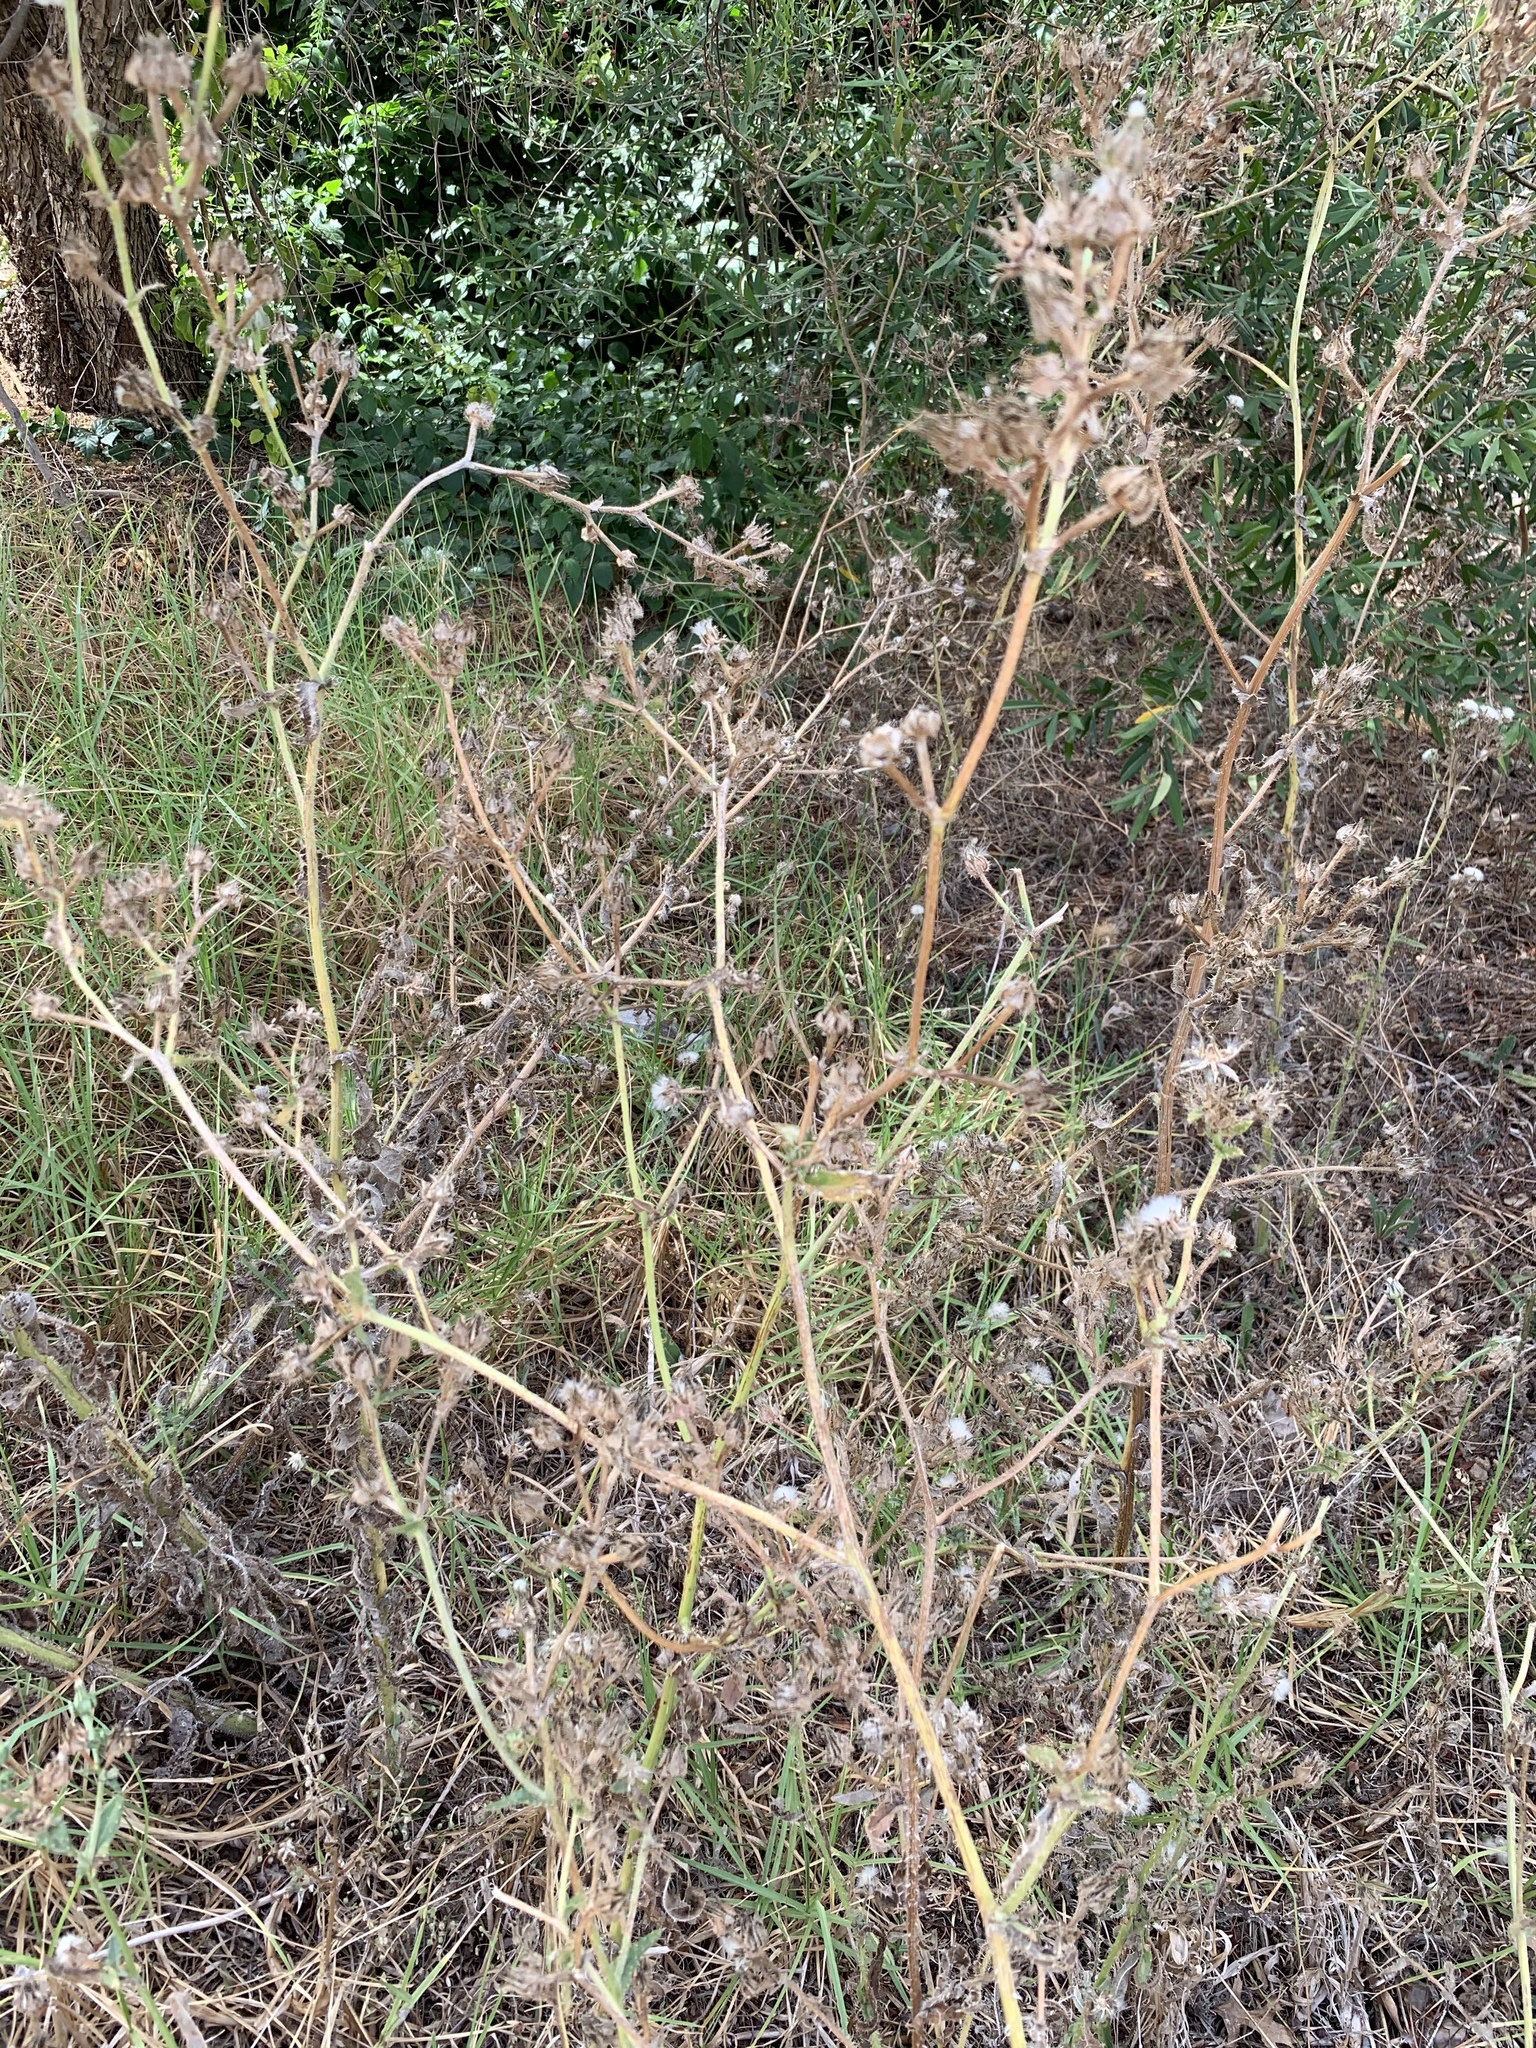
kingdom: Plantae
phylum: Tracheophyta
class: Magnoliopsida
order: Asterales
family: Asteraceae
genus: Helminthotheca
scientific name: Helminthotheca echioides
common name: Ox-tongue
